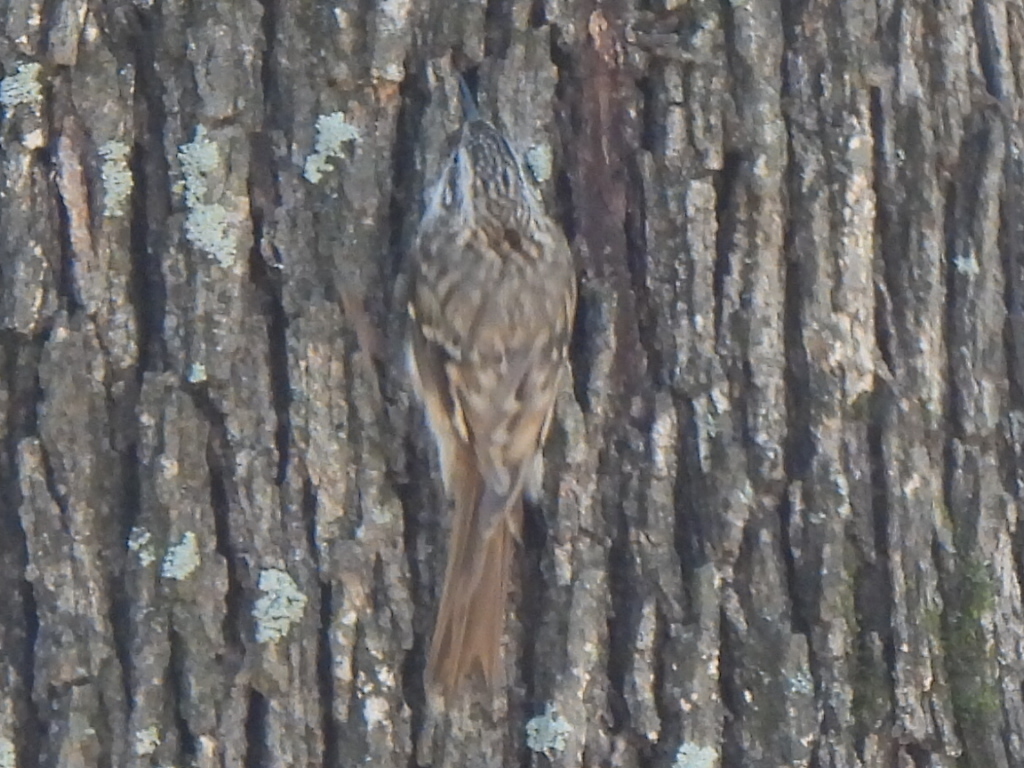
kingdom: Animalia
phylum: Chordata
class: Aves
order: Passeriformes
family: Certhiidae
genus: Certhia
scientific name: Certhia americana
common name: Brown creeper
